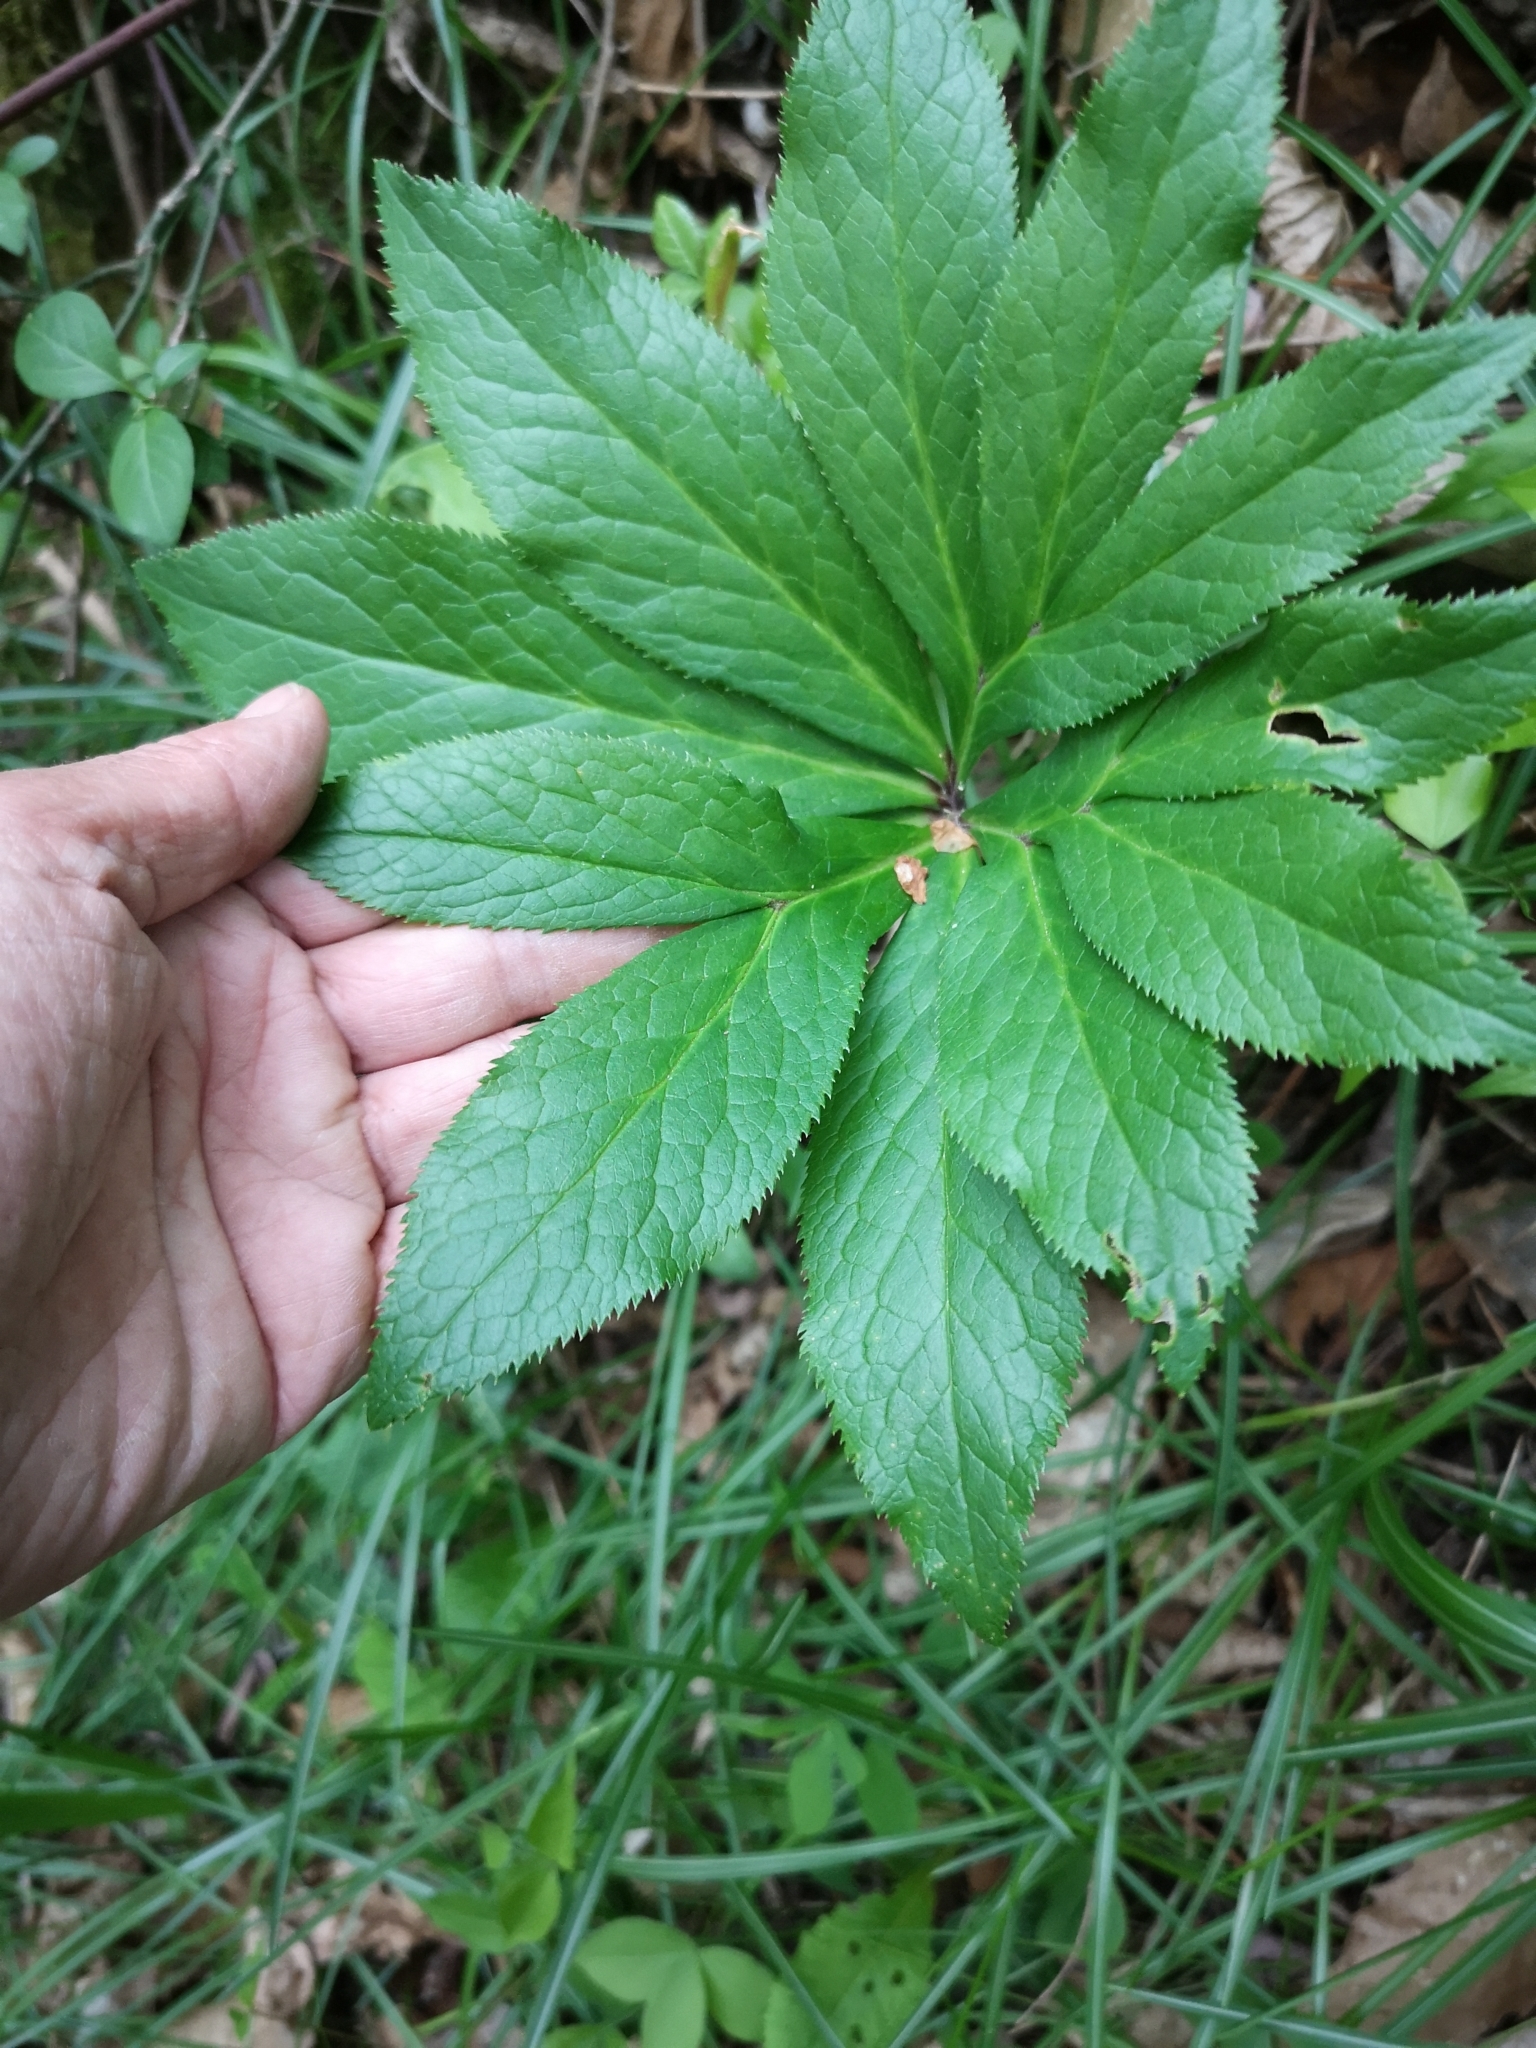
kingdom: Plantae
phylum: Tracheophyta
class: Magnoliopsida
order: Ranunculales
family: Ranunculaceae
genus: Helleborus
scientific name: Helleborus viridis
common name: Green hellebore
